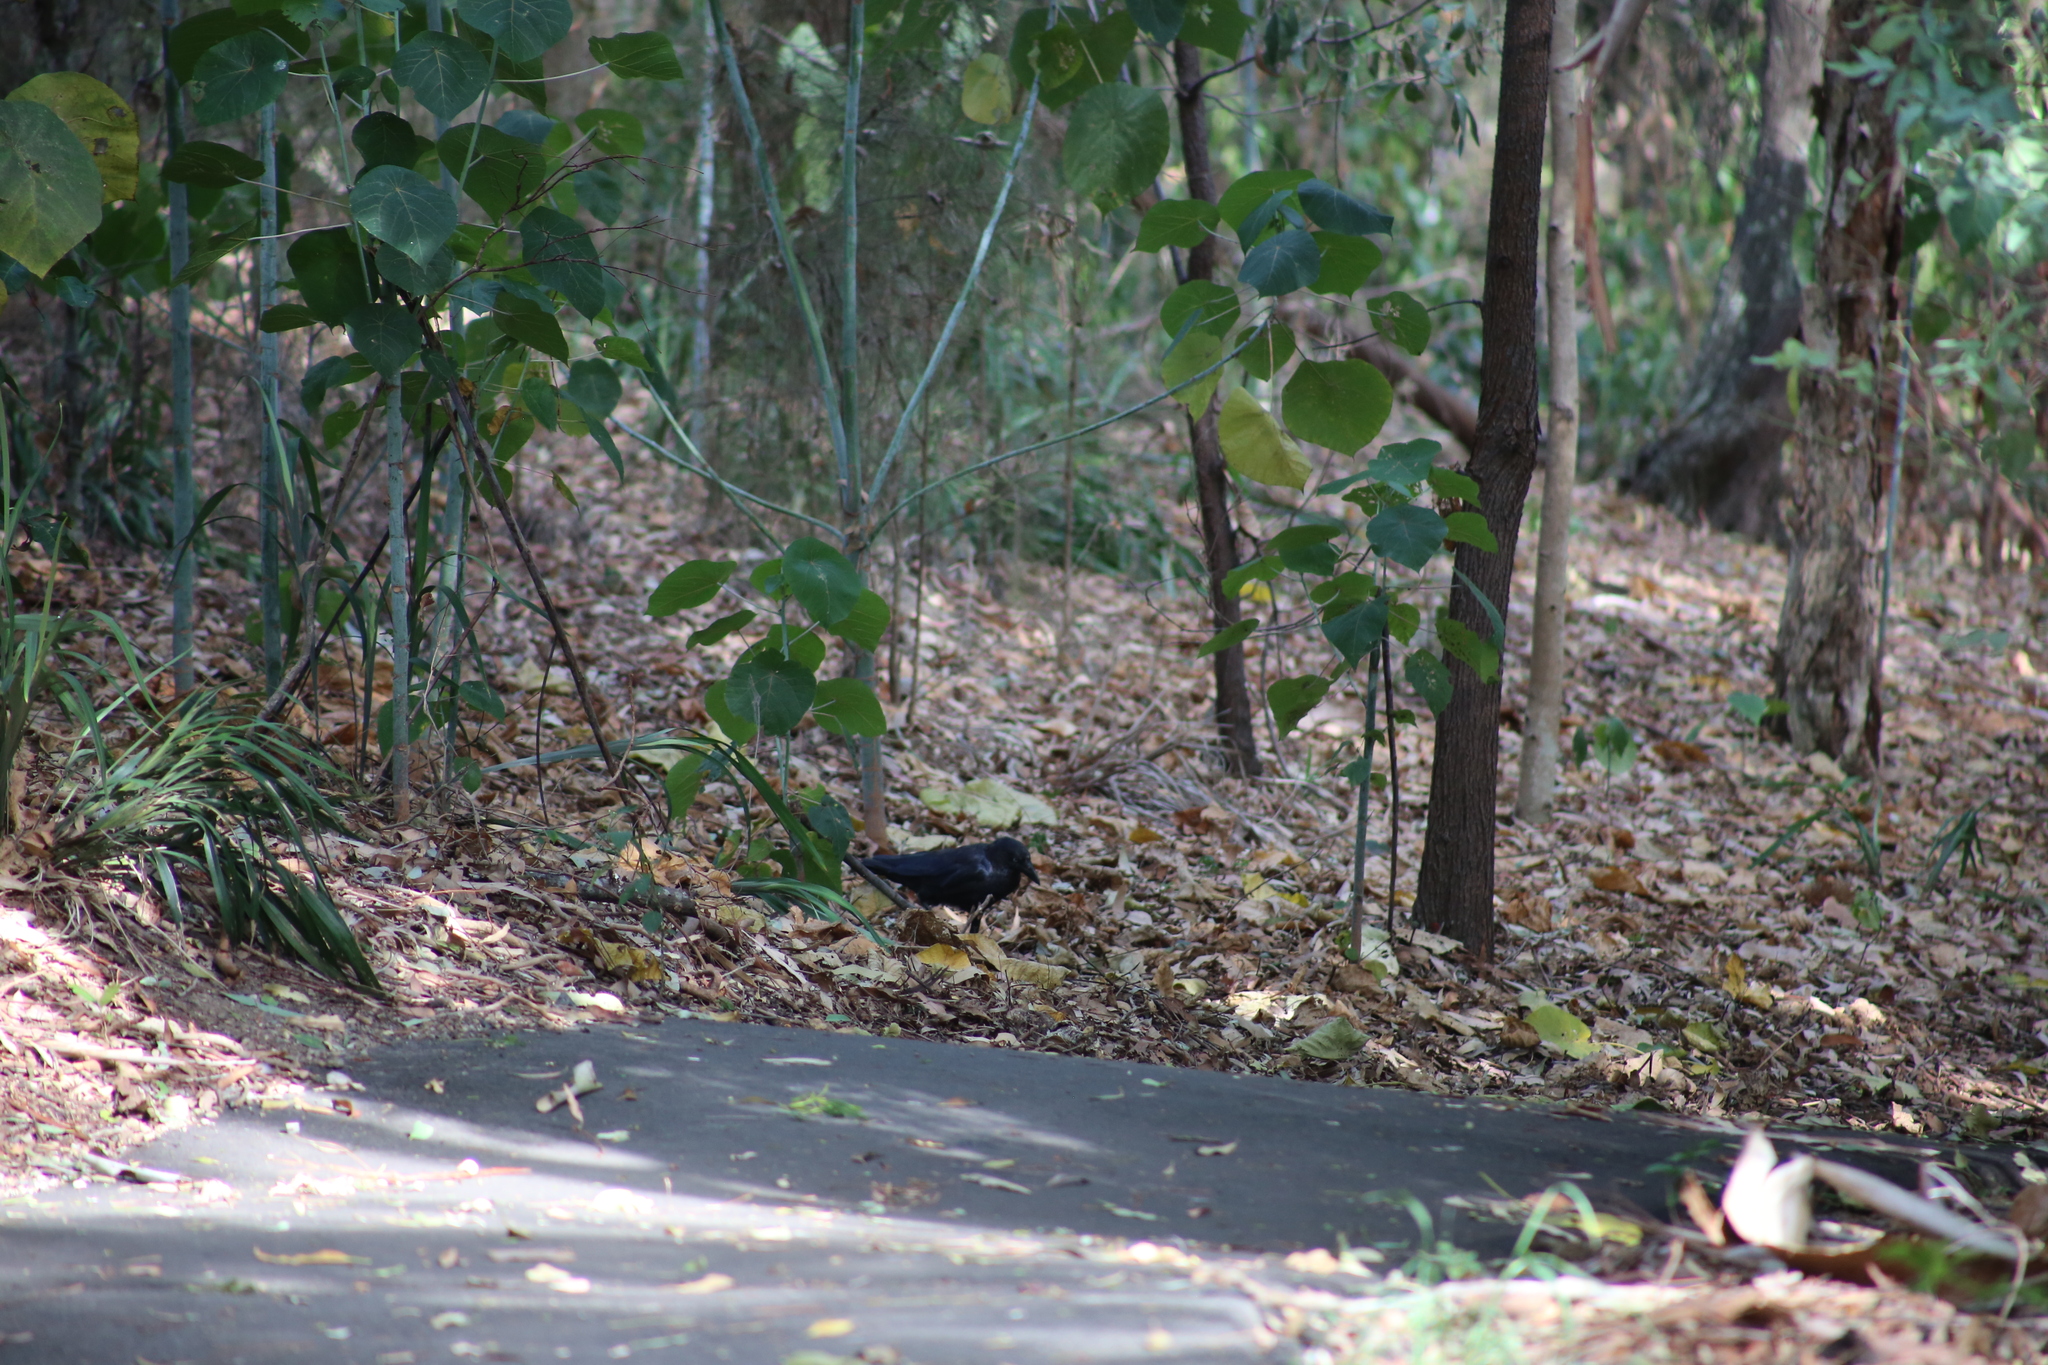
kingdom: Animalia
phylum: Chordata
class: Aves
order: Passeriformes
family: Corvidae
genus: Corvus
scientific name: Corvus orru
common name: Torresian crow
